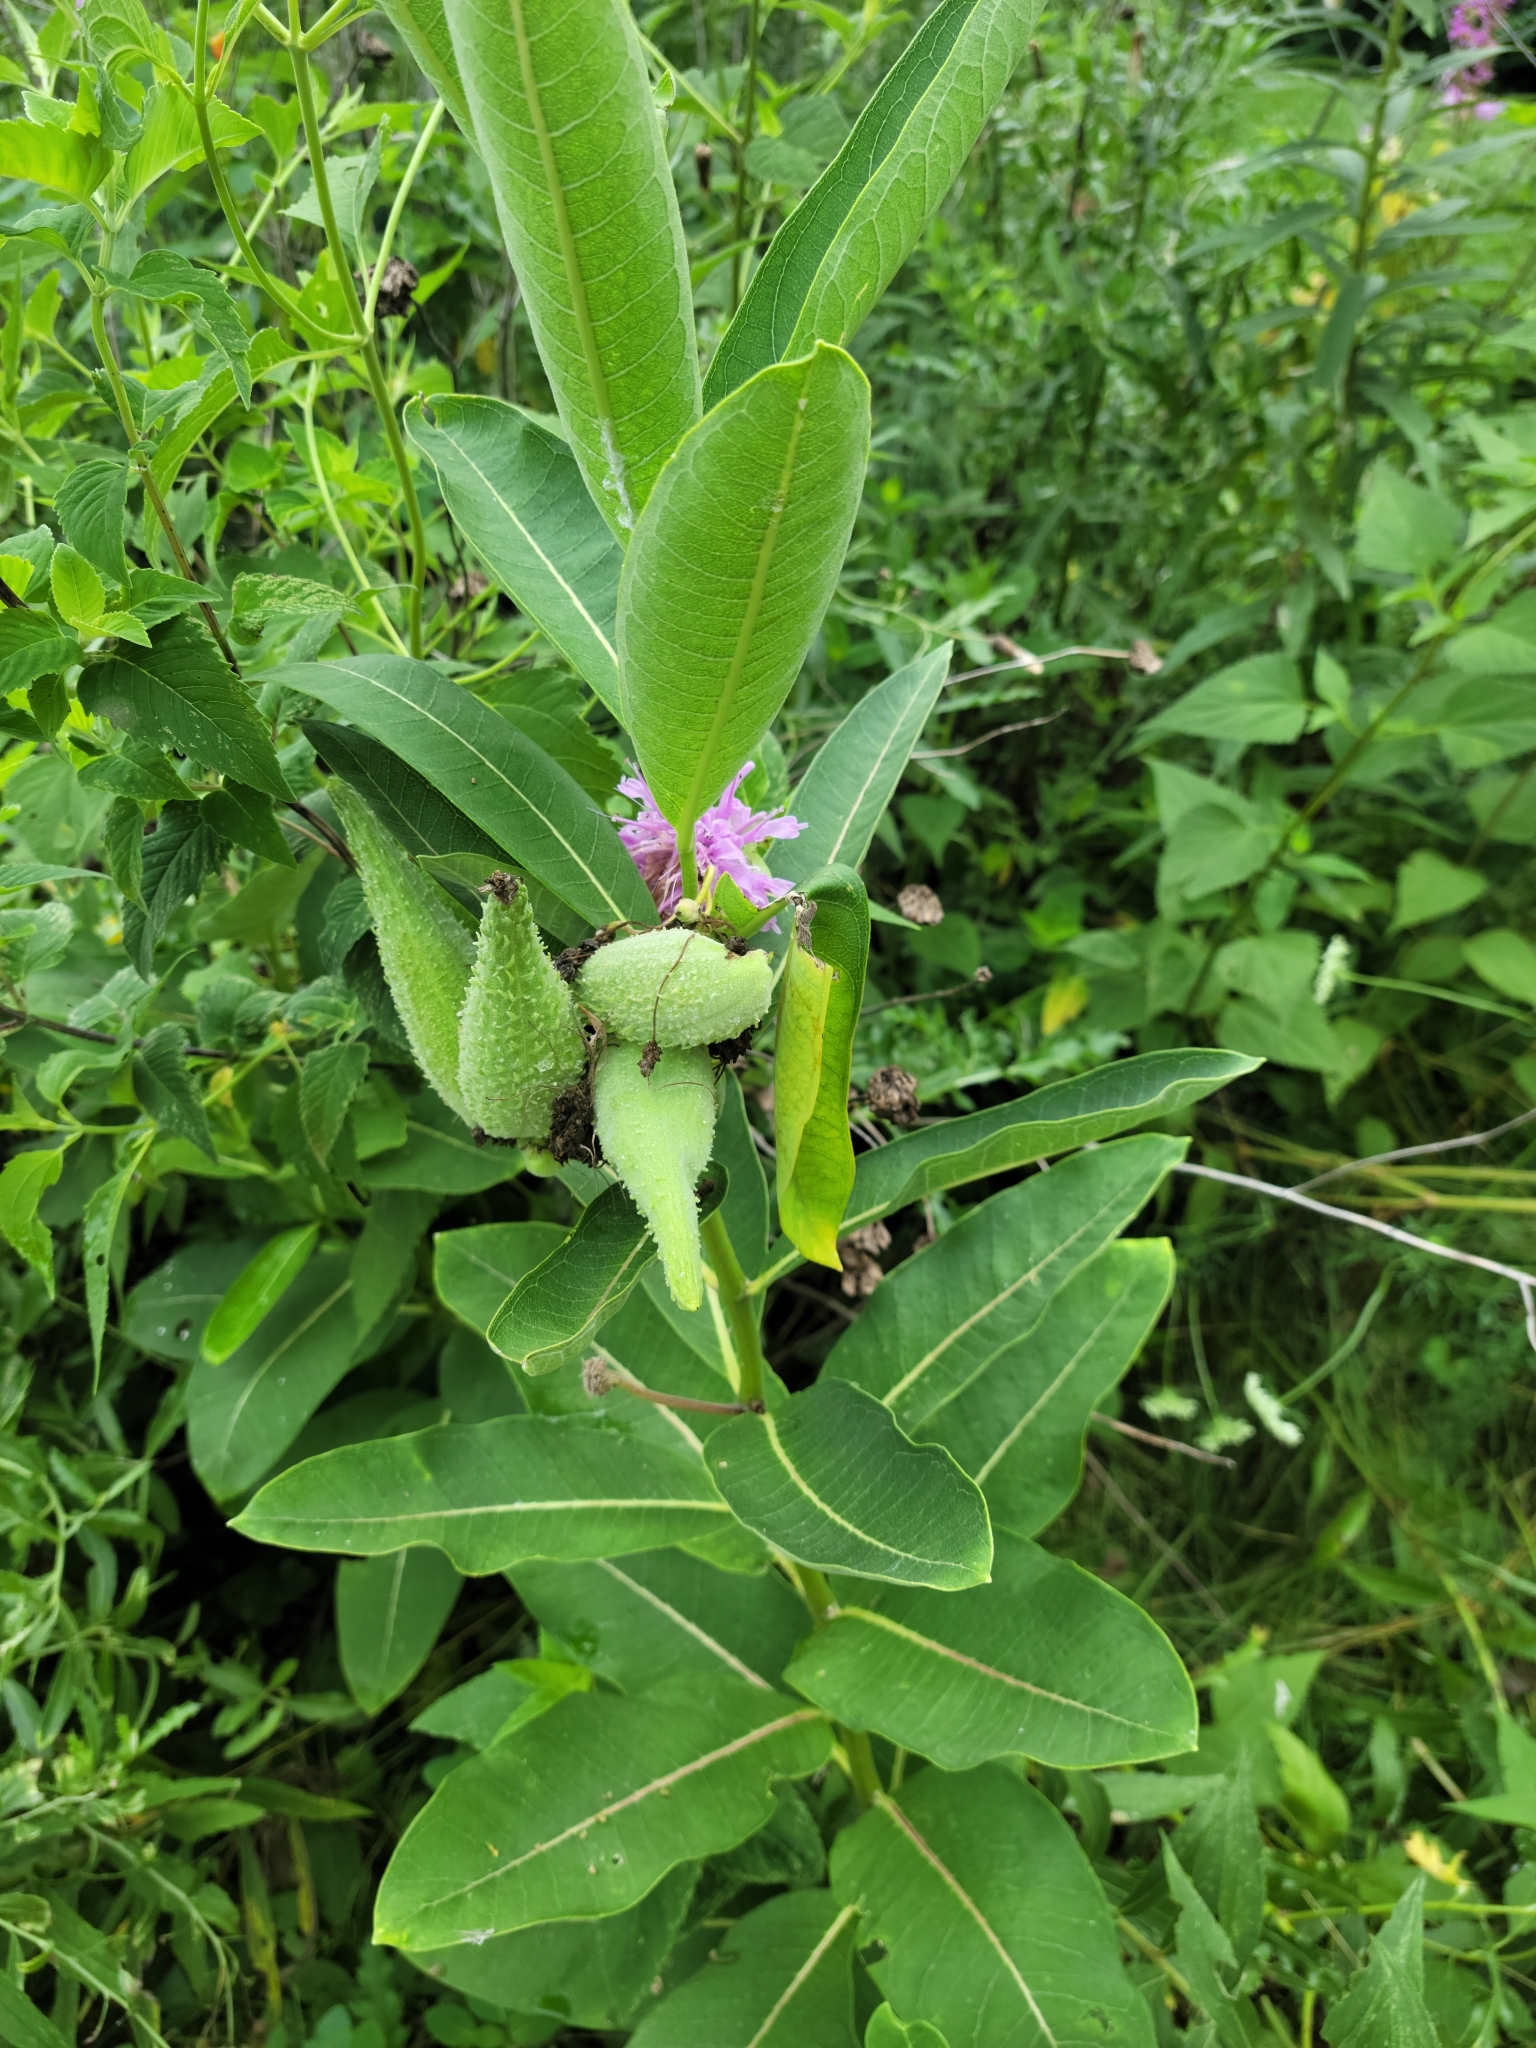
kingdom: Plantae
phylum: Tracheophyta
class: Magnoliopsida
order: Gentianales
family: Apocynaceae
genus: Asclepias
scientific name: Asclepias syriaca
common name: Common milkweed
